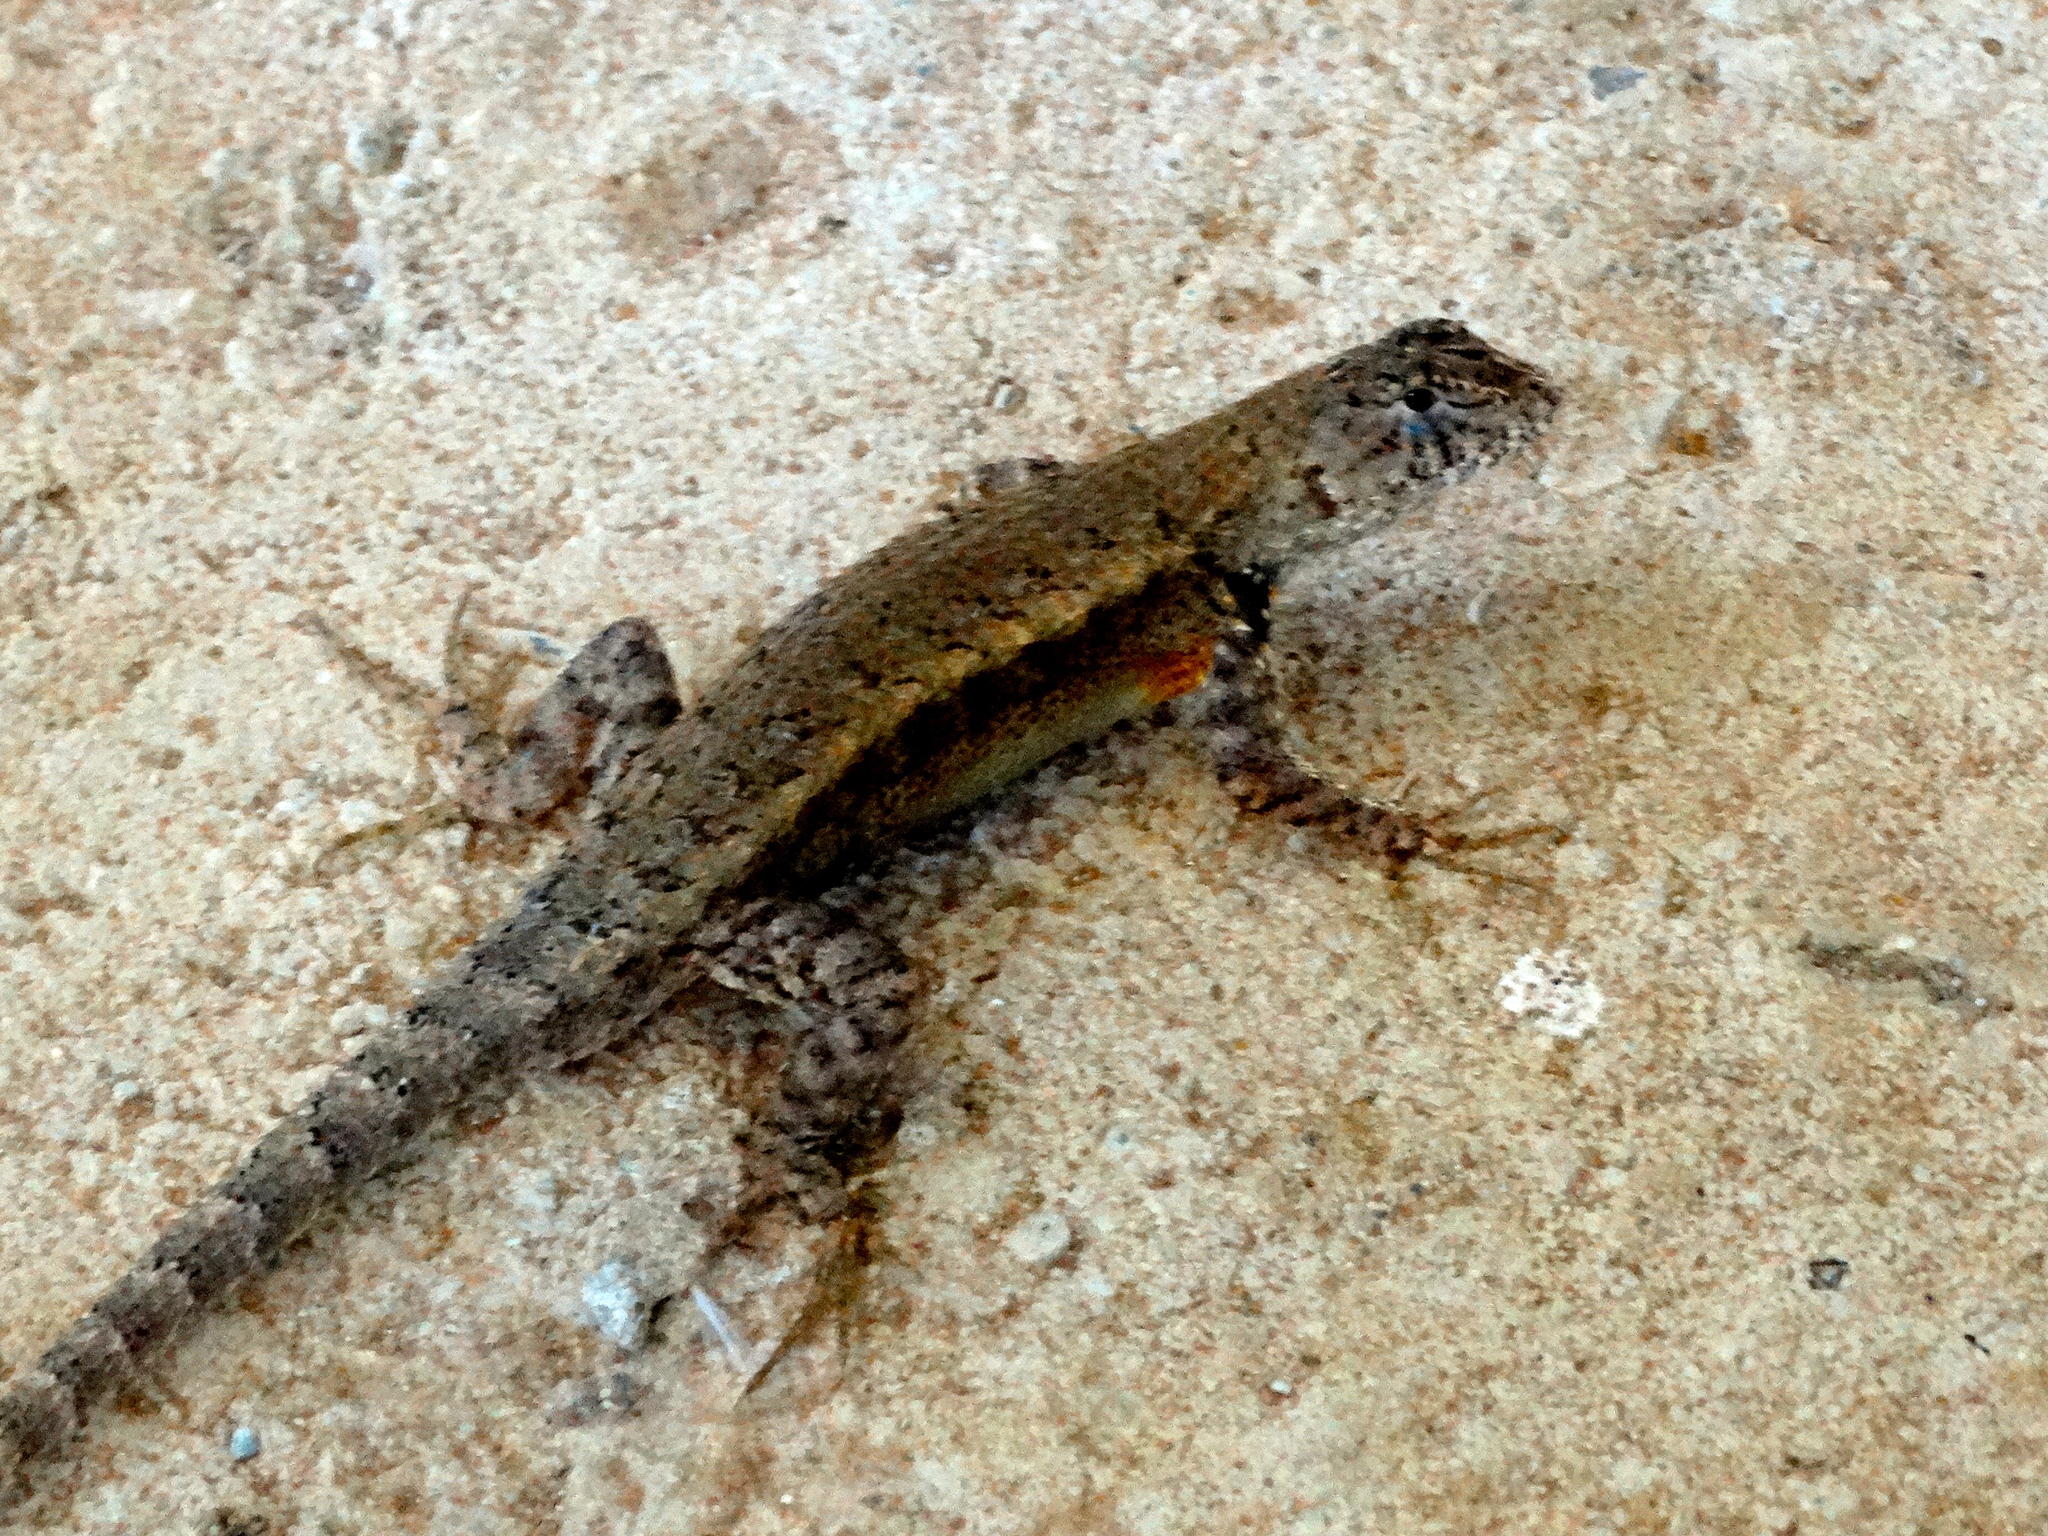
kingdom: Animalia
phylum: Chordata
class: Squamata
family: Phrynosomatidae
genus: Sceloporus
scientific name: Sceloporus nelsoni
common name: Nelson's spiny lizard
